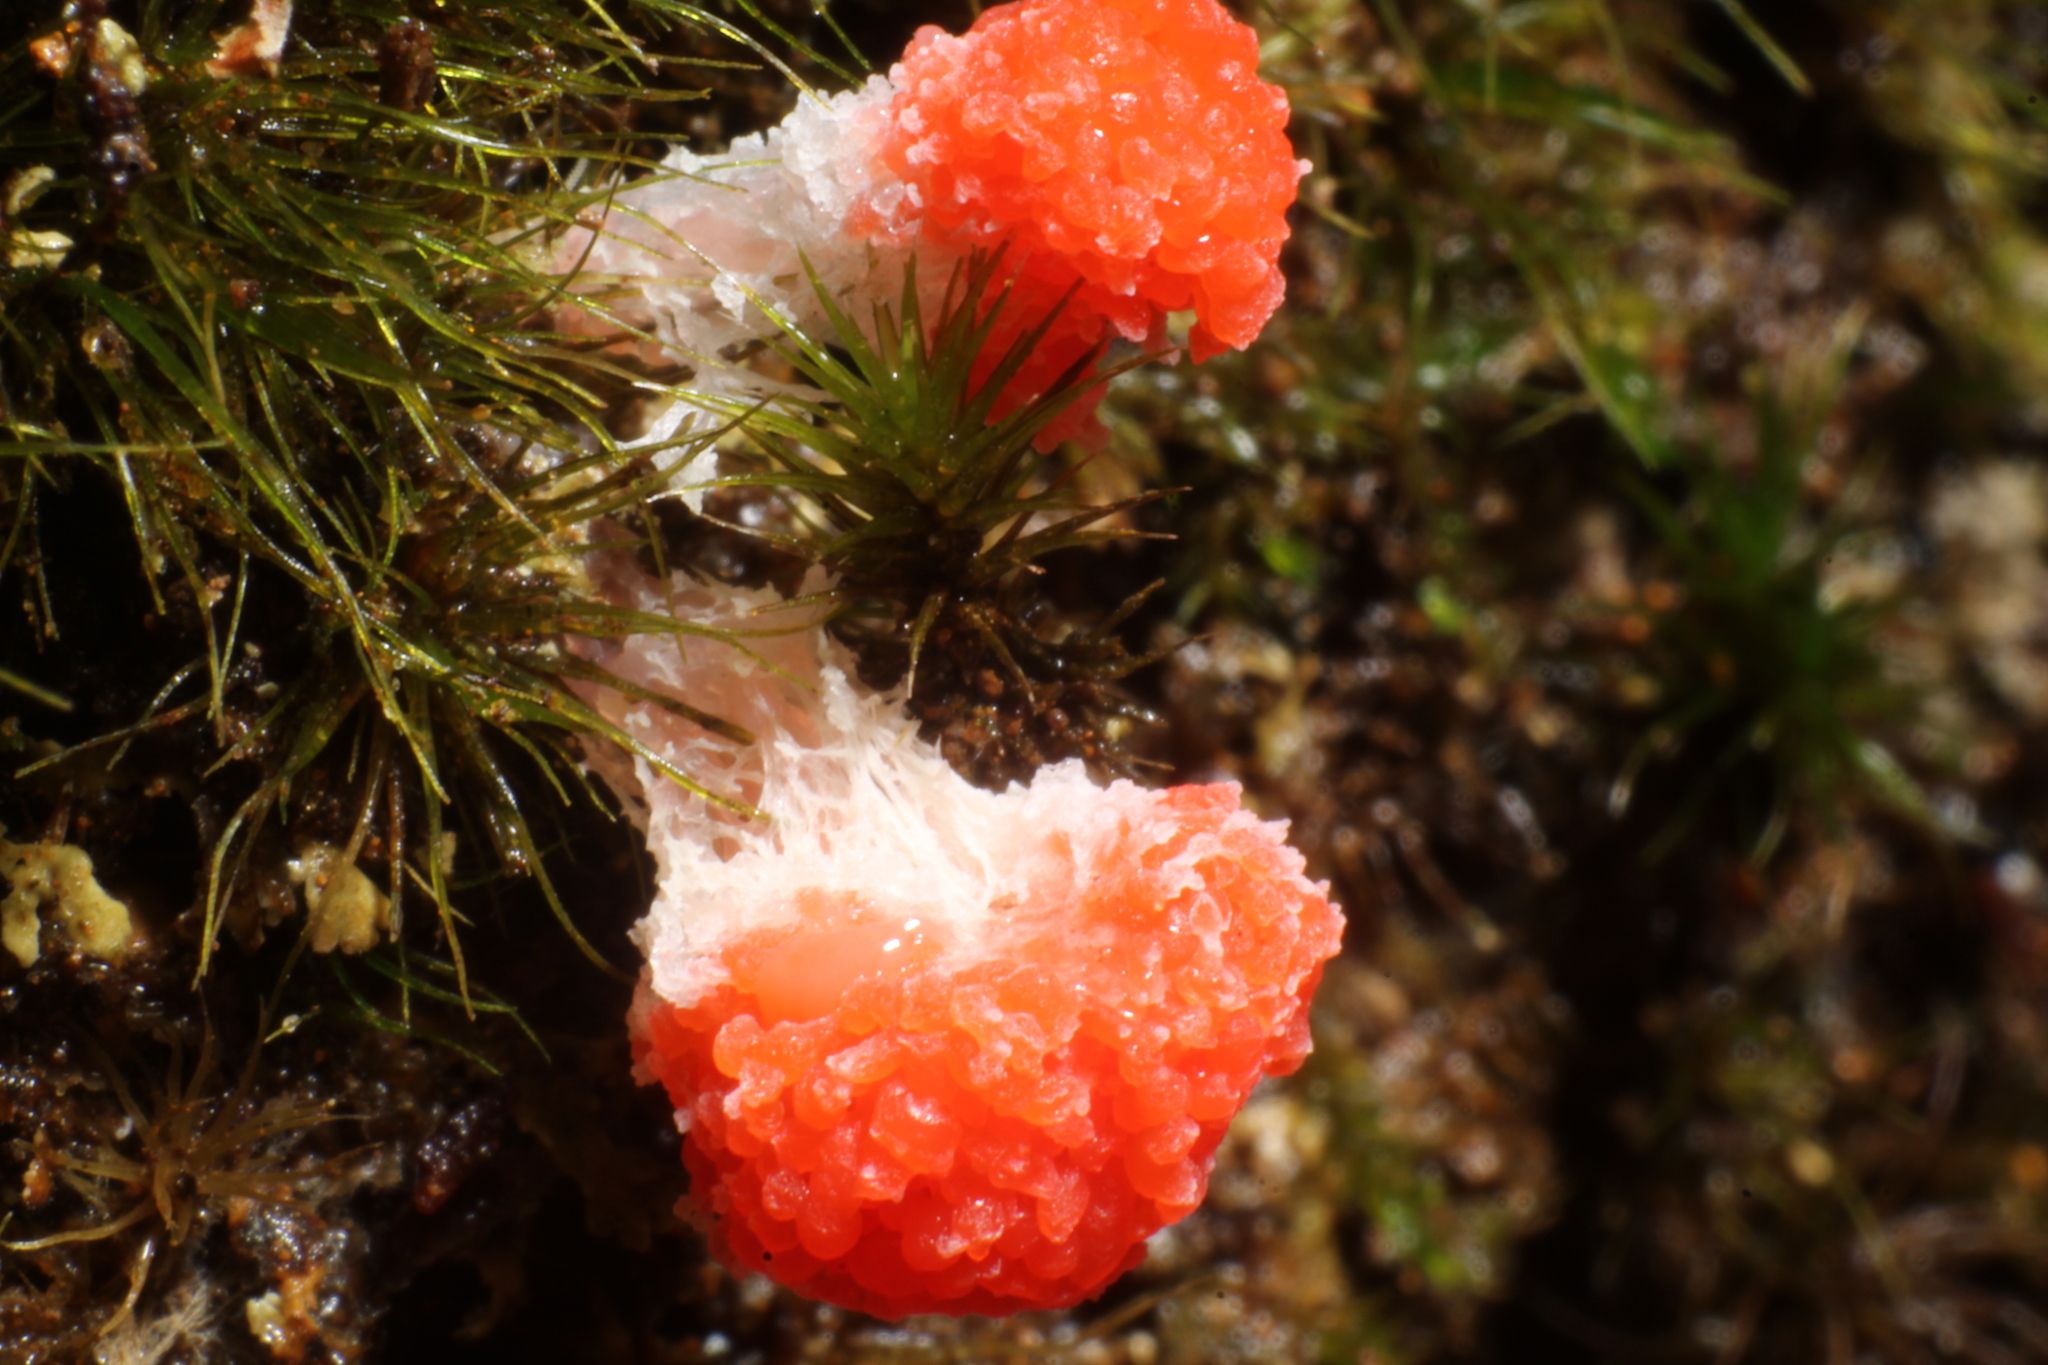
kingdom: Protozoa
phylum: Mycetozoa
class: Myxomycetes
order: Cribrariales
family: Tubiferaceae
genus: Tubifera
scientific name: Tubifera ferruginosa
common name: Red raspberry slime mold
